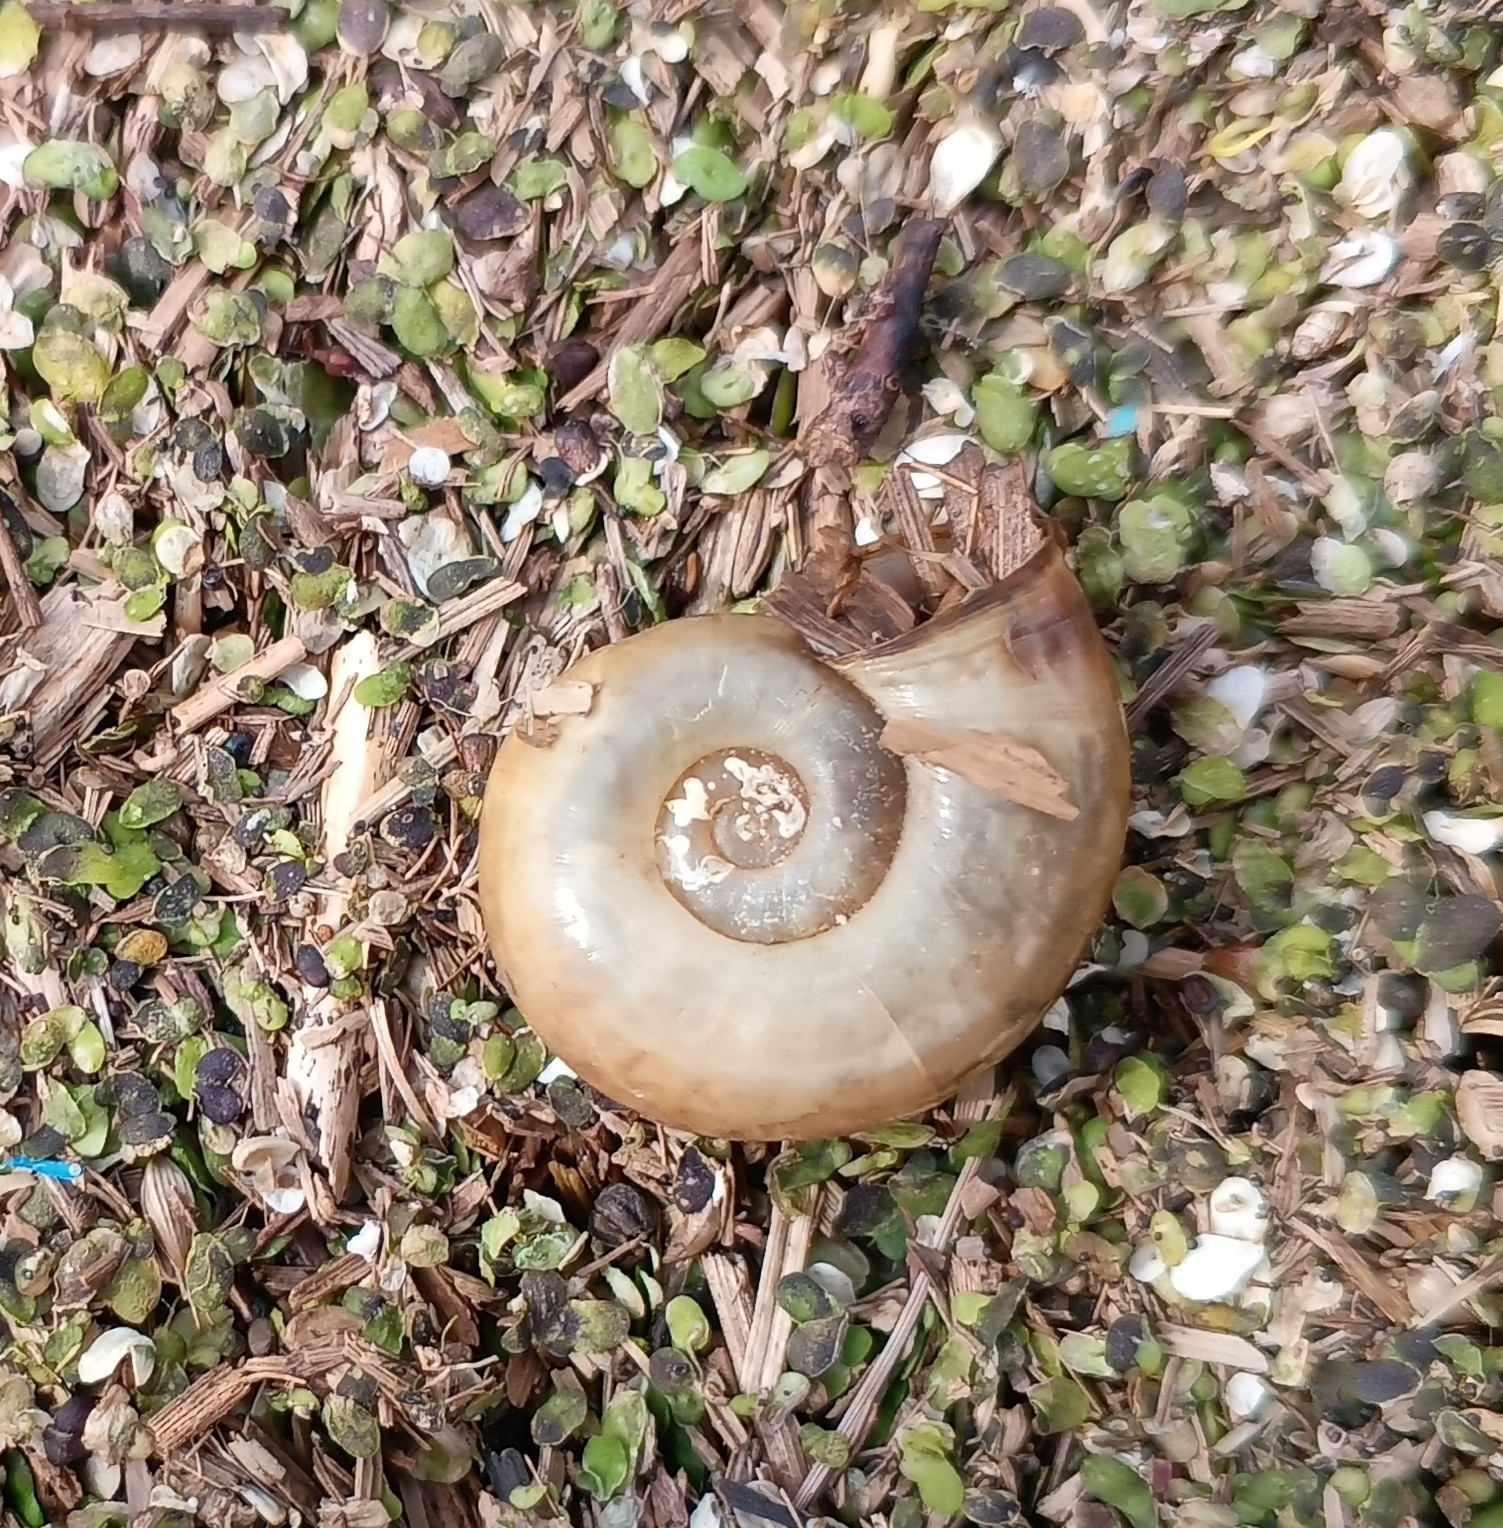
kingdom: Animalia
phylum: Mollusca
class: Gastropoda
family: Planorbidae
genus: Planorbarius
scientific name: Planorbarius corneus
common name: Great ramshorn
